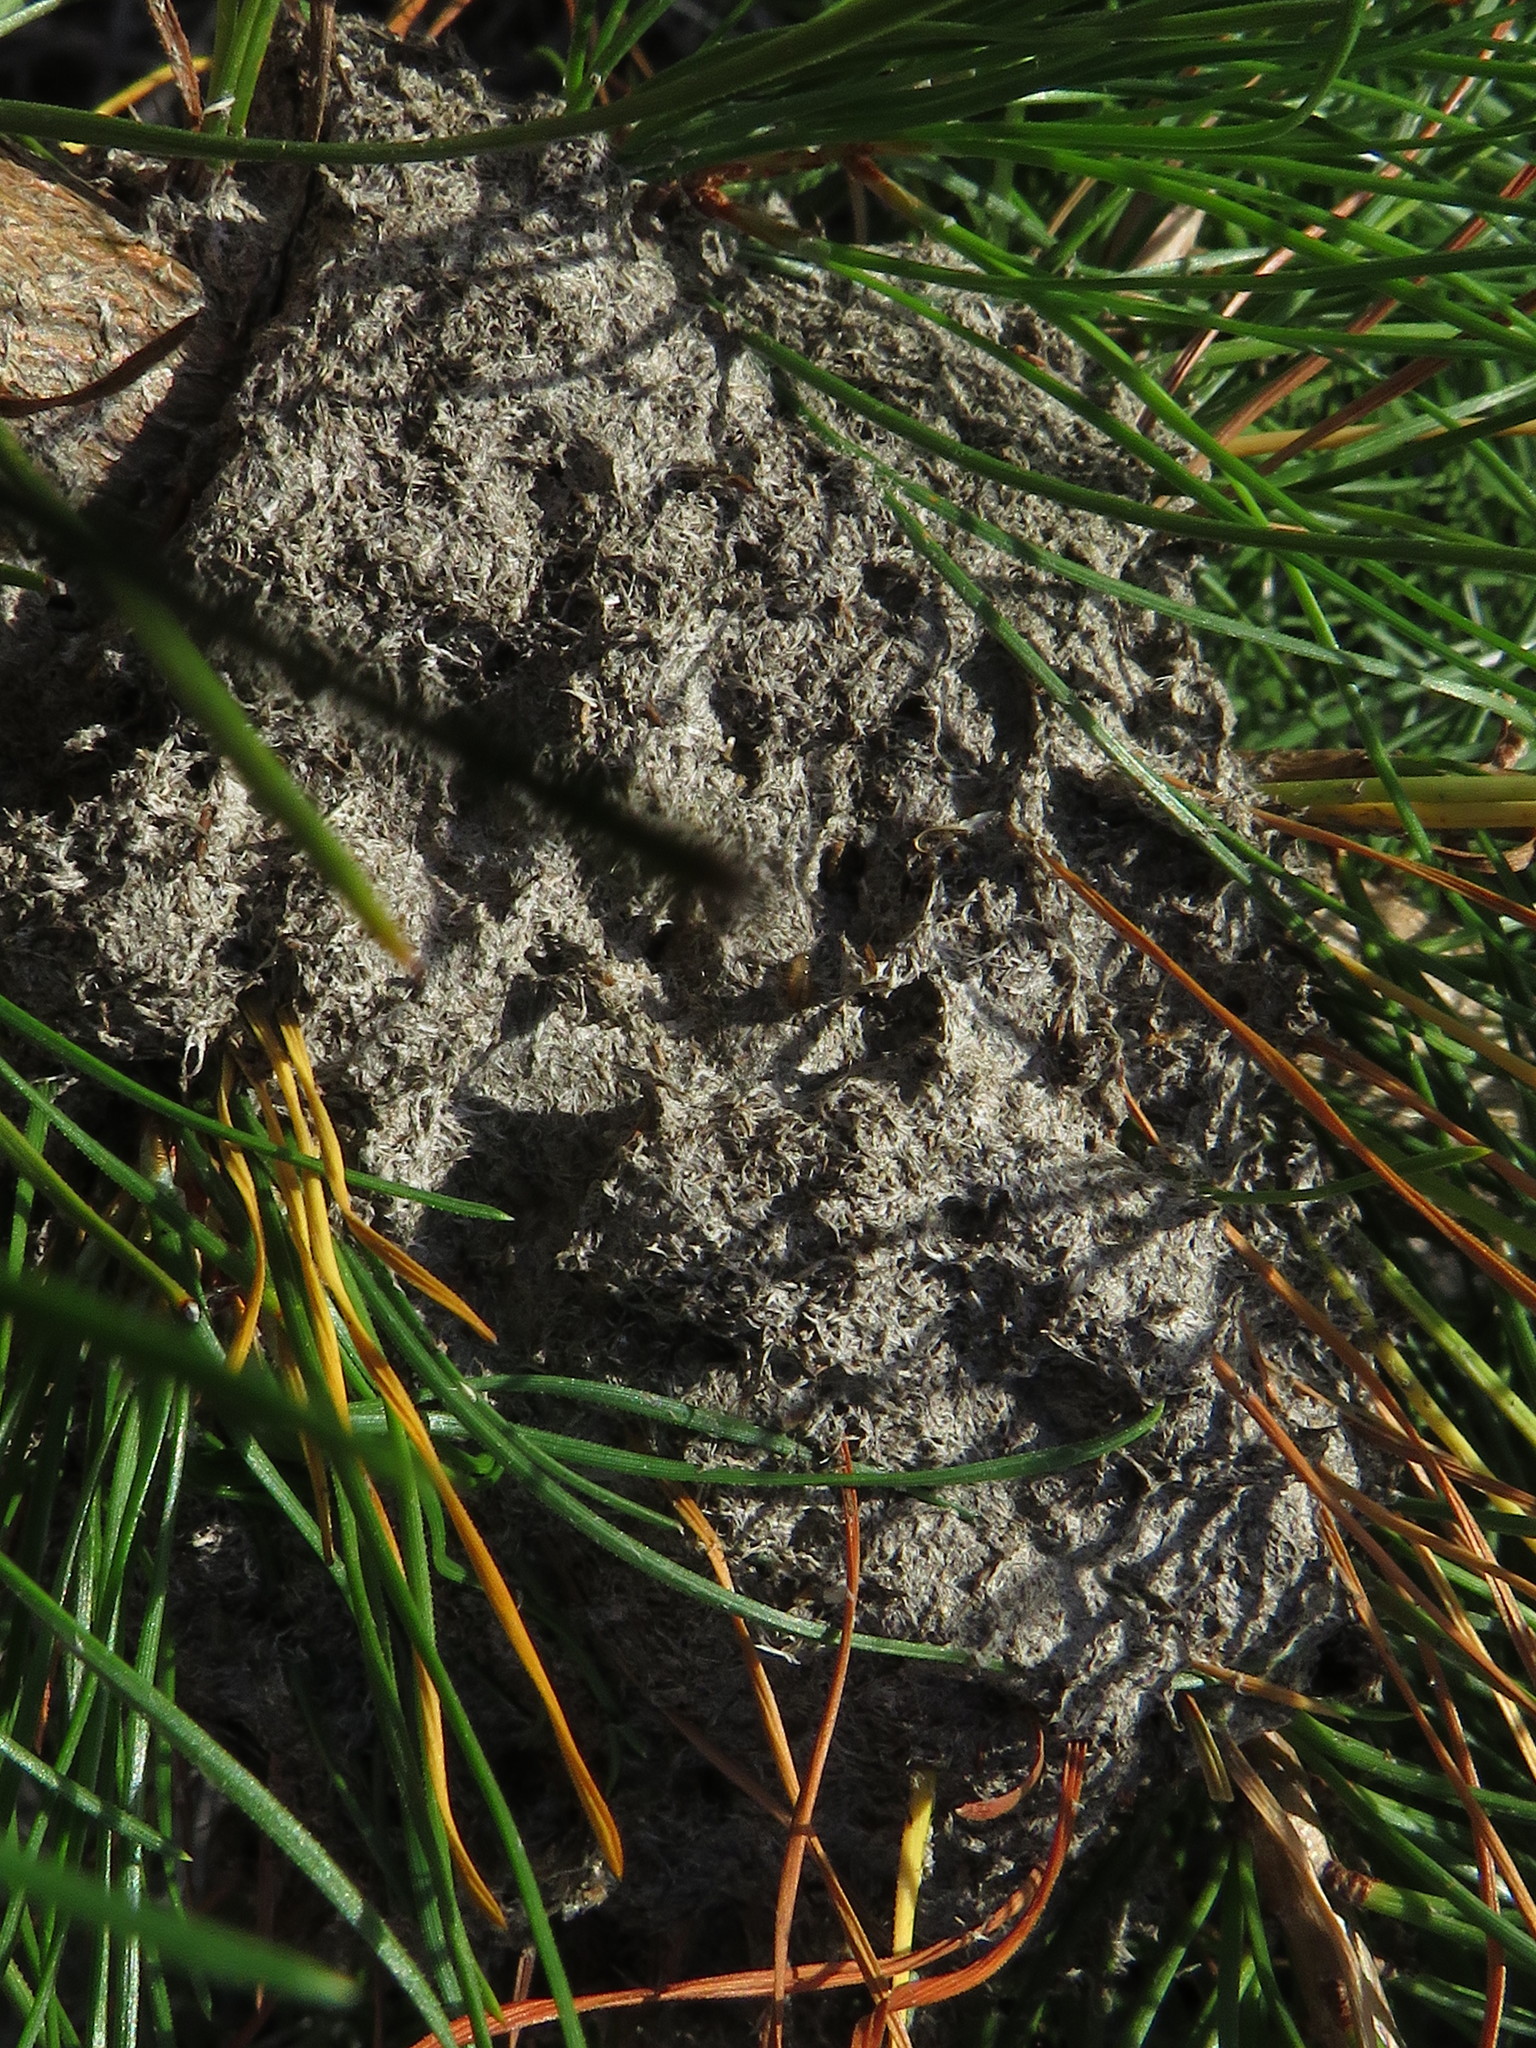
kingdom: Animalia
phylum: Arthropoda
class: Insecta
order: Hymenoptera
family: Formicidae
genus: Crematogaster
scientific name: Crematogaster peringueyi
